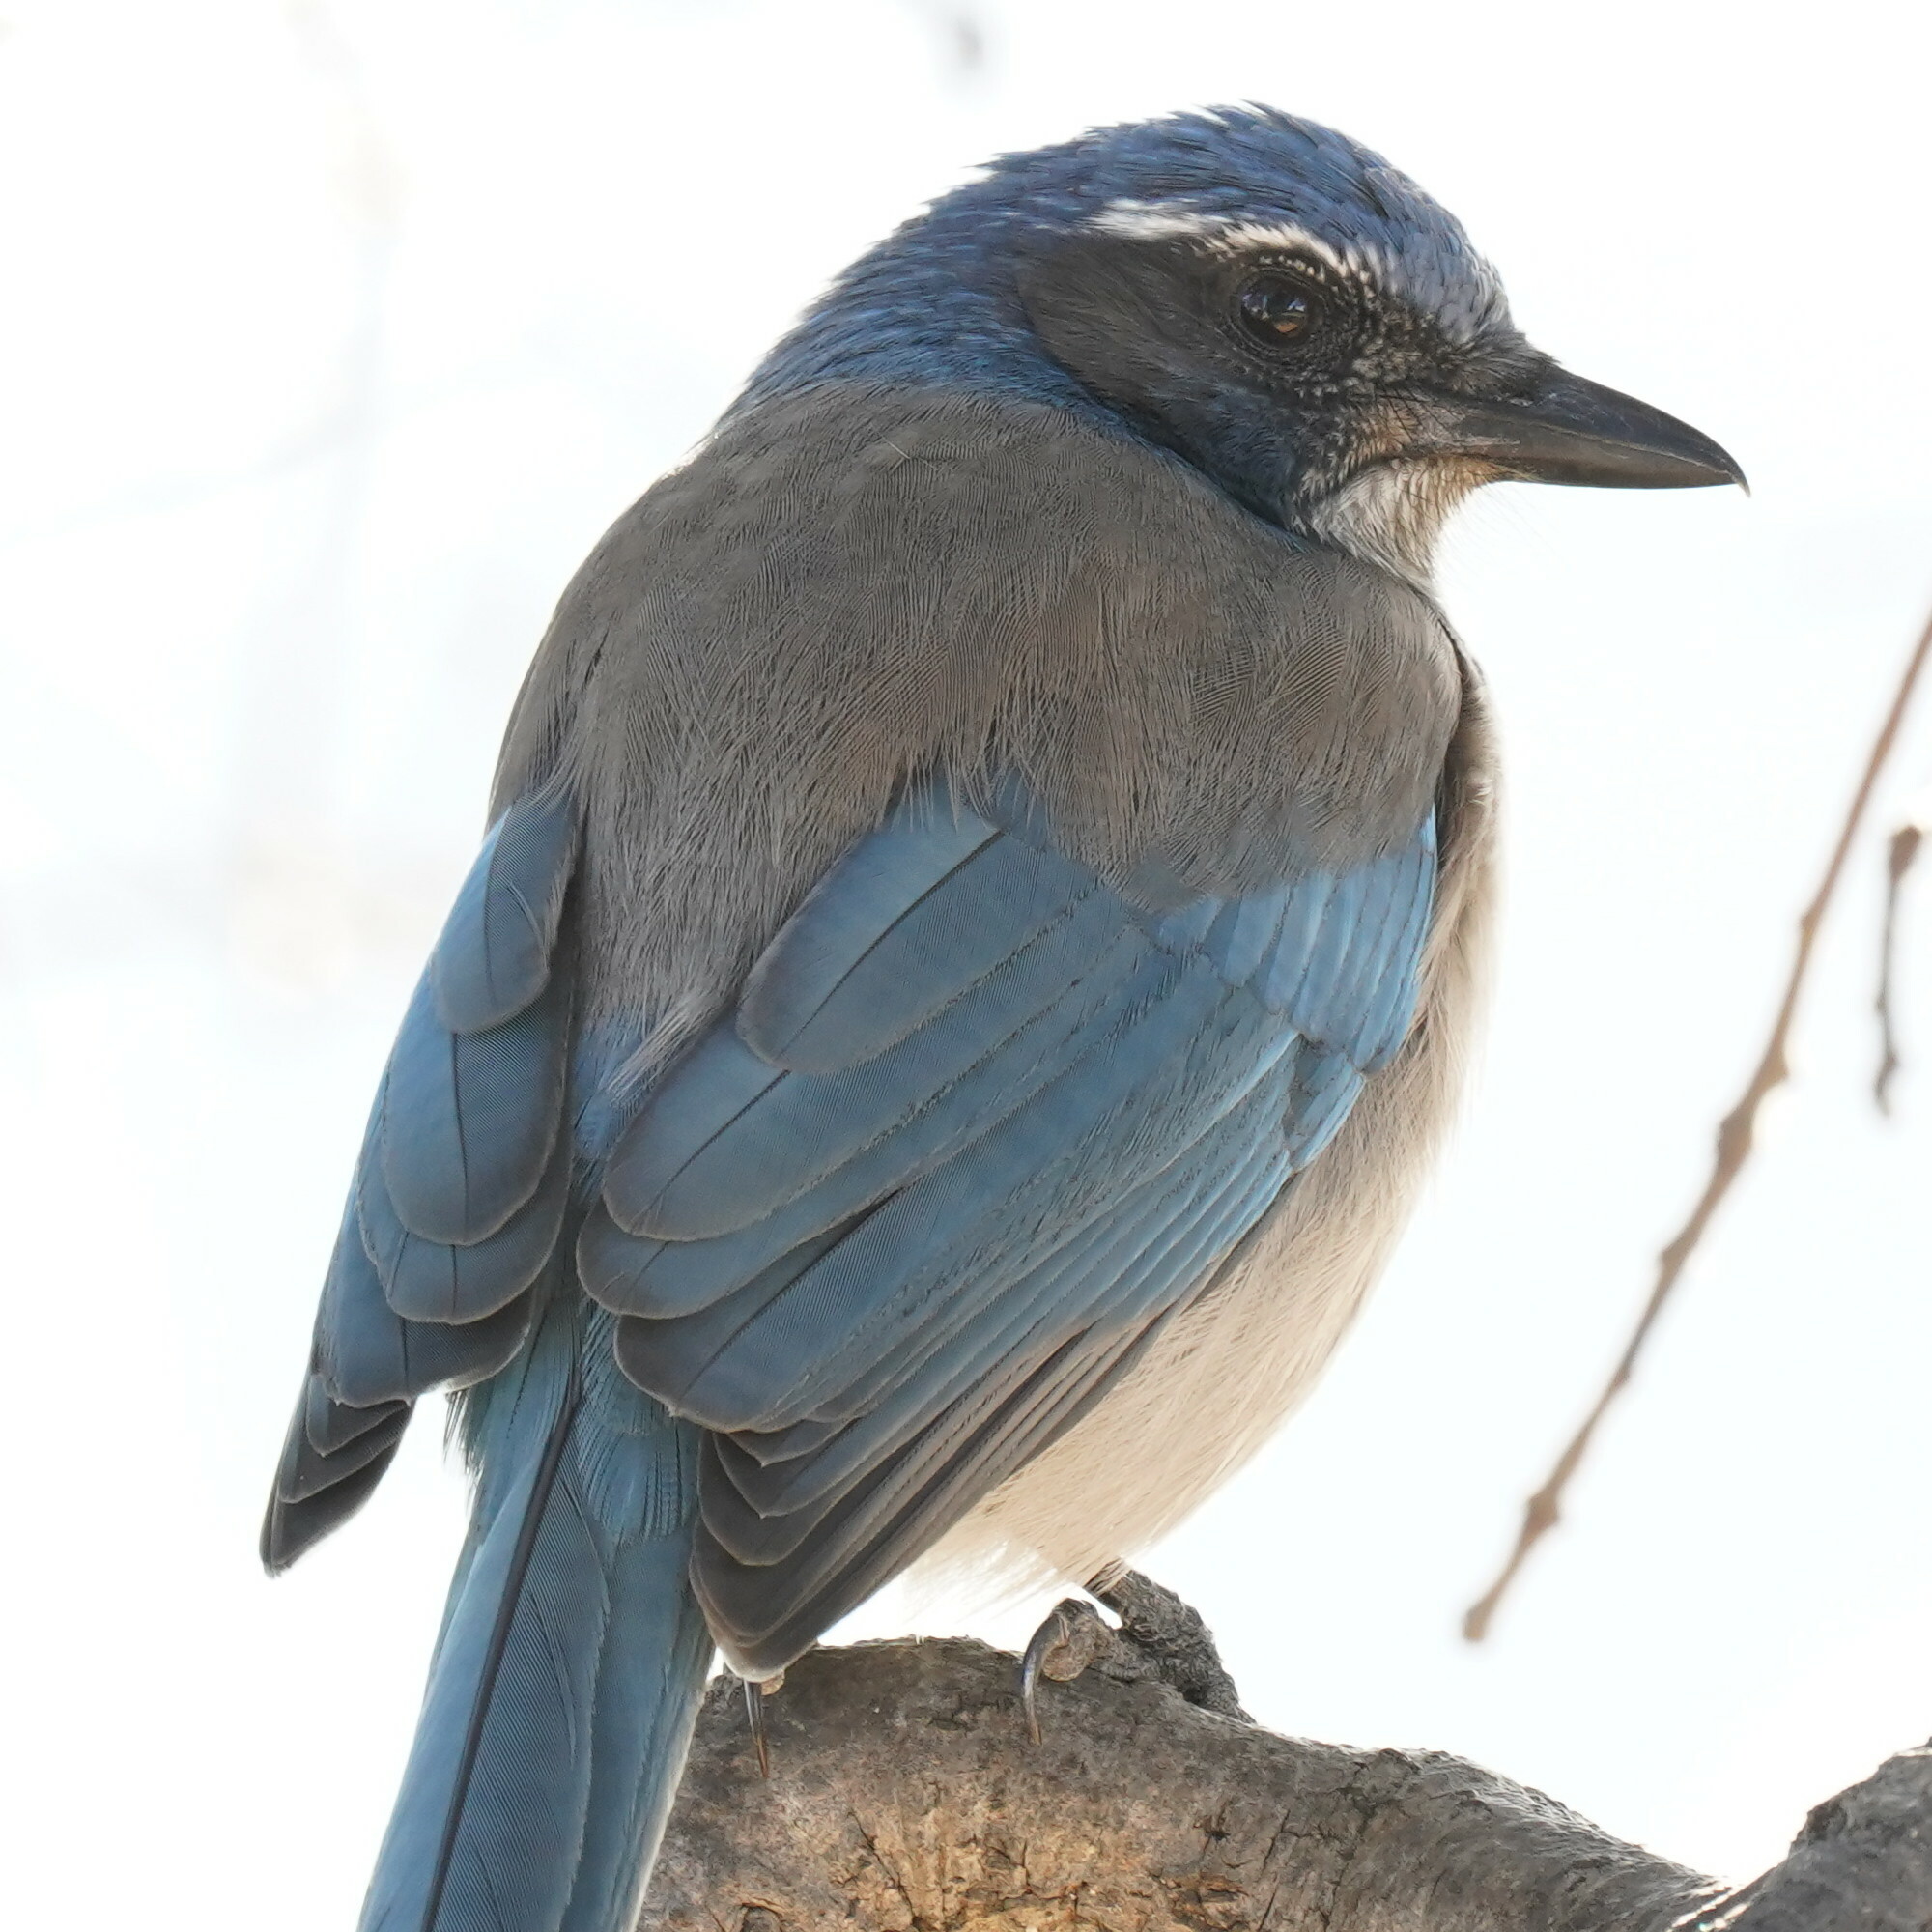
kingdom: Animalia
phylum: Chordata
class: Aves
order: Passeriformes
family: Corvidae
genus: Aphelocoma
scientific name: Aphelocoma californica
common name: California scrub-jay
